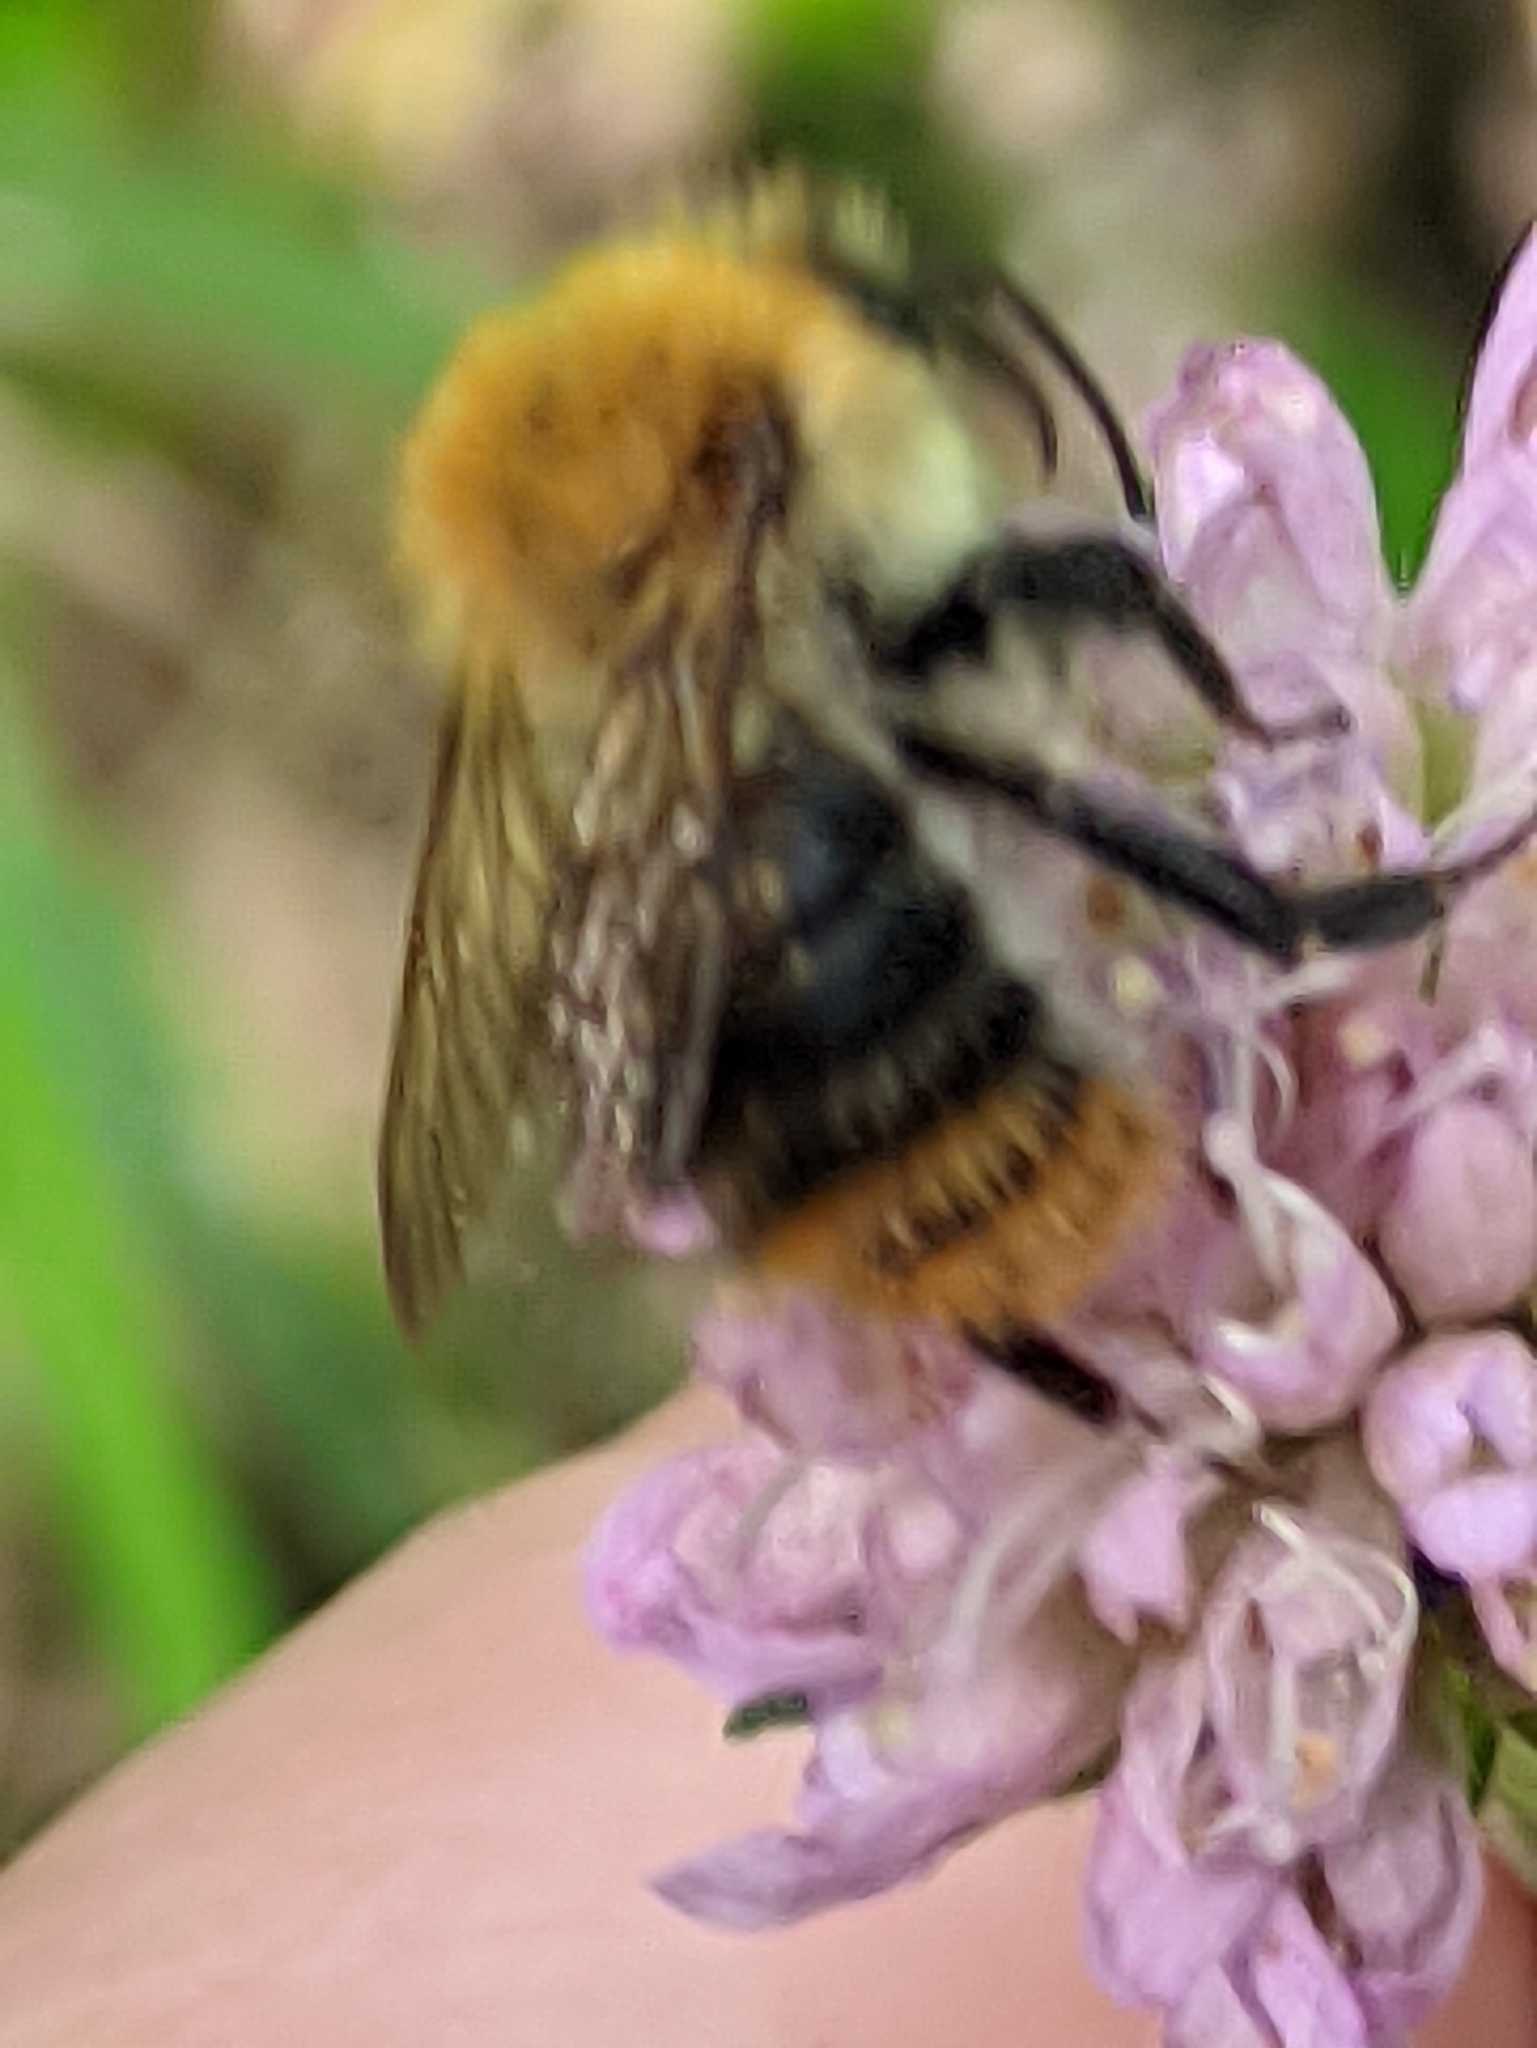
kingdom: Animalia
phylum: Arthropoda
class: Insecta
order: Hymenoptera
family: Apidae
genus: Bombus
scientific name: Bombus pascuorum
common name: Common carder bee
